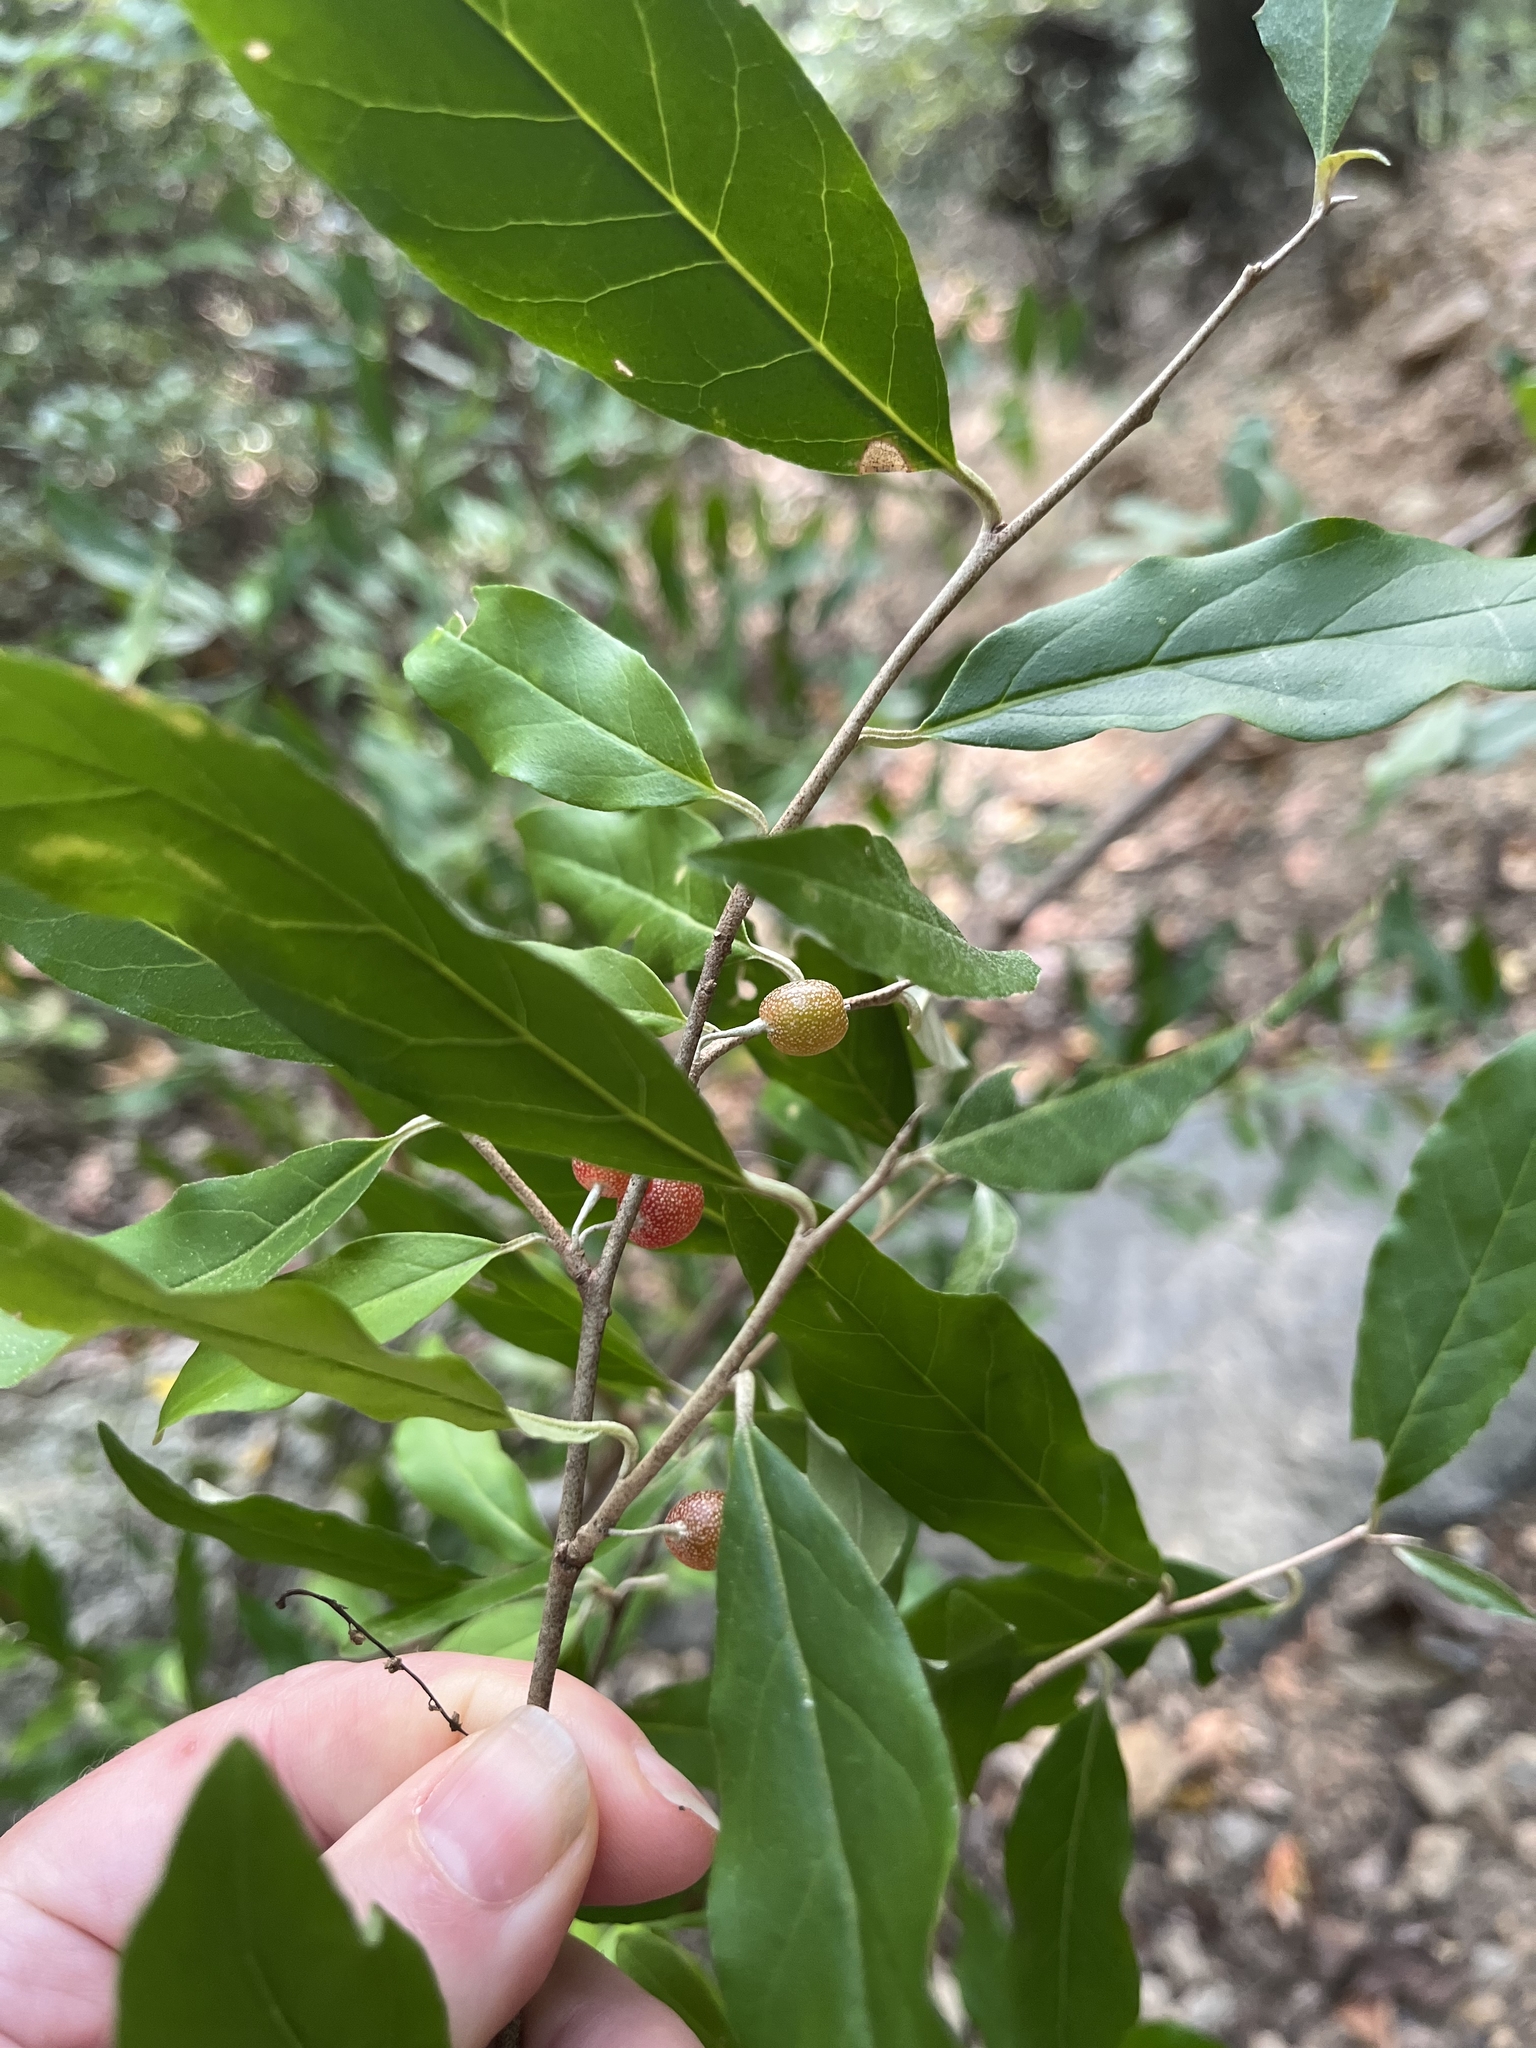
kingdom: Plantae
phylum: Tracheophyta
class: Magnoliopsida
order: Rosales
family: Elaeagnaceae
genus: Elaeagnus
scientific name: Elaeagnus umbellata
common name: Autumn olive
